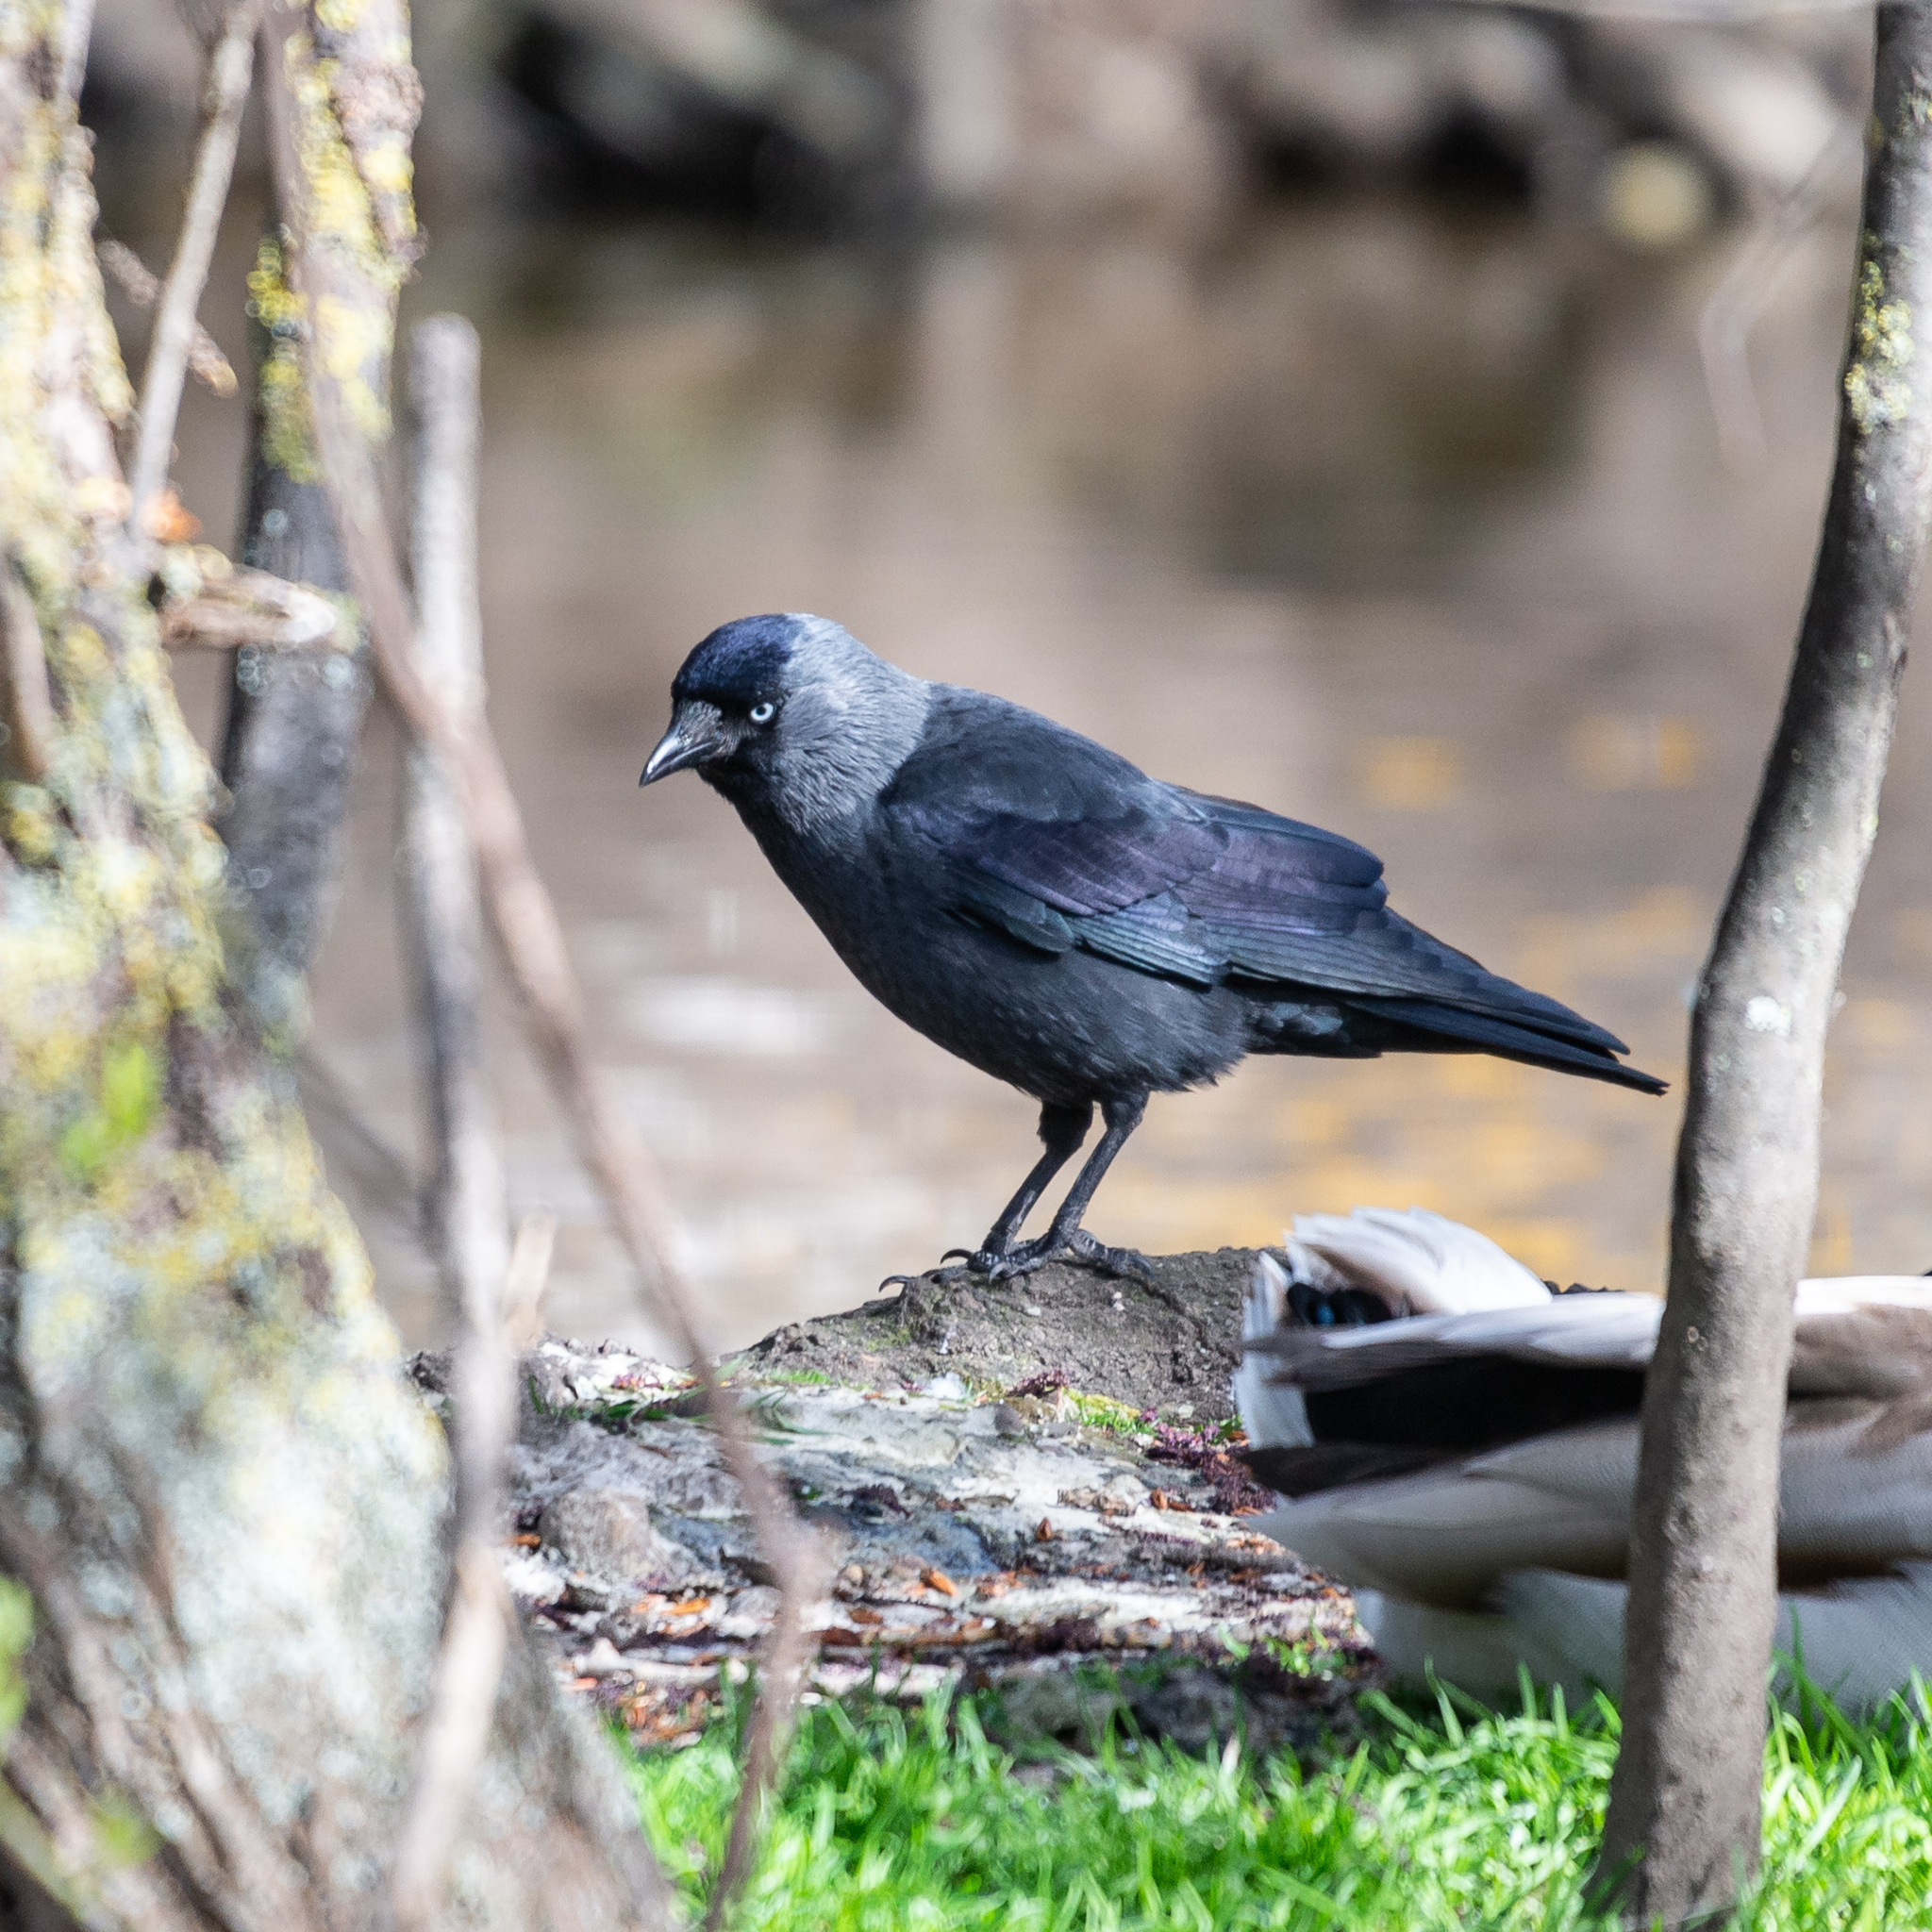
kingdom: Animalia
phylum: Chordata
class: Aves
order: Passeriformes
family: Corvidae
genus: Coloeus
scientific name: Coloeus monedula
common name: Western jackdaw
